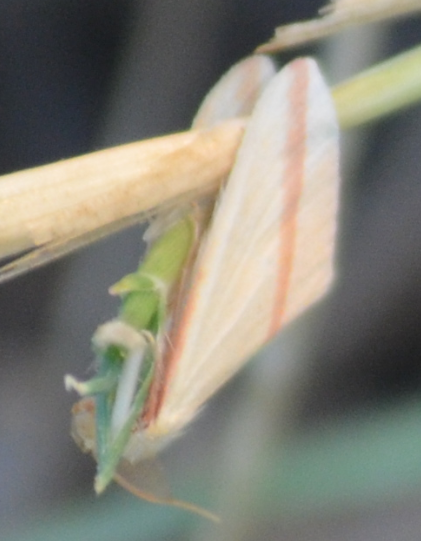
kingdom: Animalia
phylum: Arthropoda
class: Insecta
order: Lepidoptera
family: Geometridae
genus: Rhodometra
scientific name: Rhodometra sacraria
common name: Vestal
